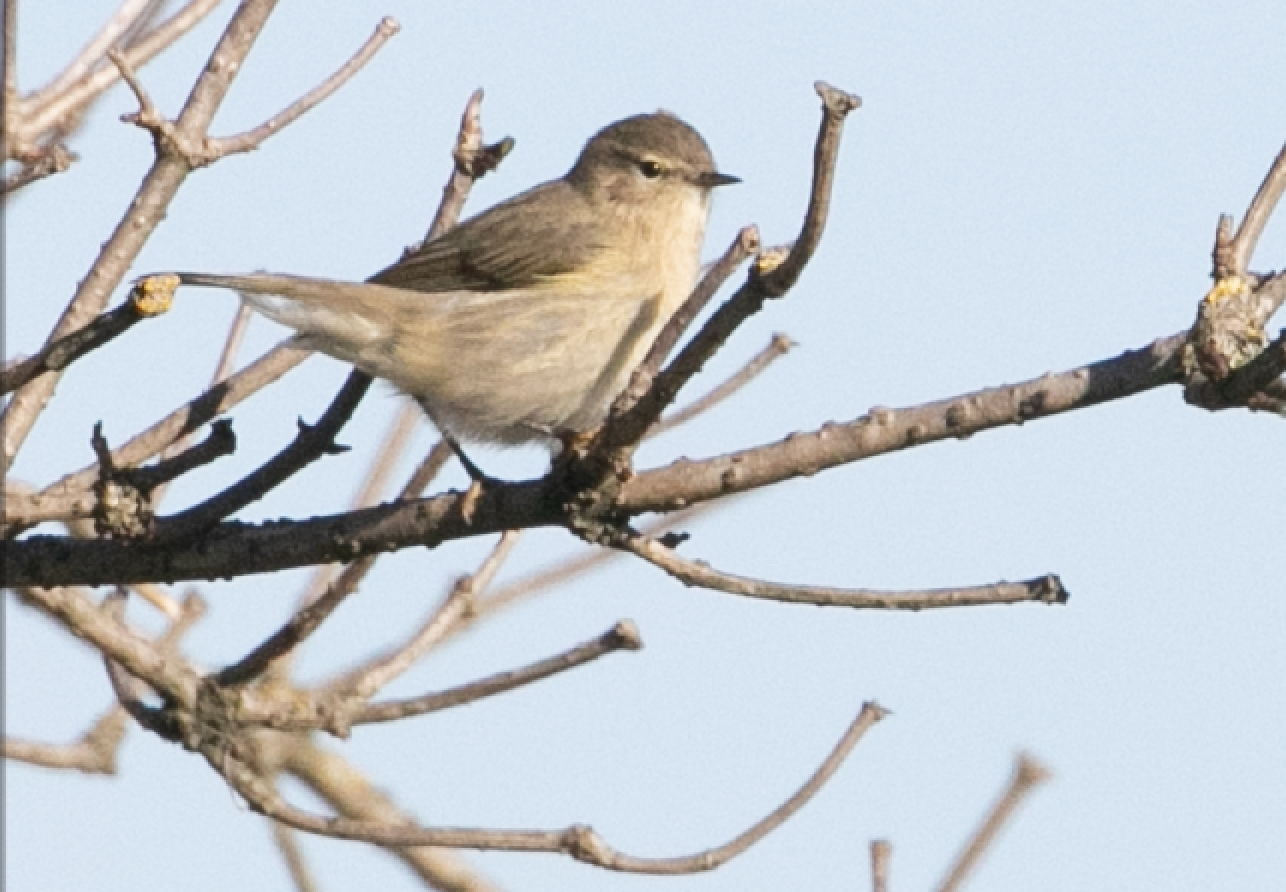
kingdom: Animalia
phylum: Chordata
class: Aves
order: Passeriformes
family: Phylloscopidae
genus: Phylloscopus
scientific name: Phylloscopus collybita
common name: Common chiffchaff
